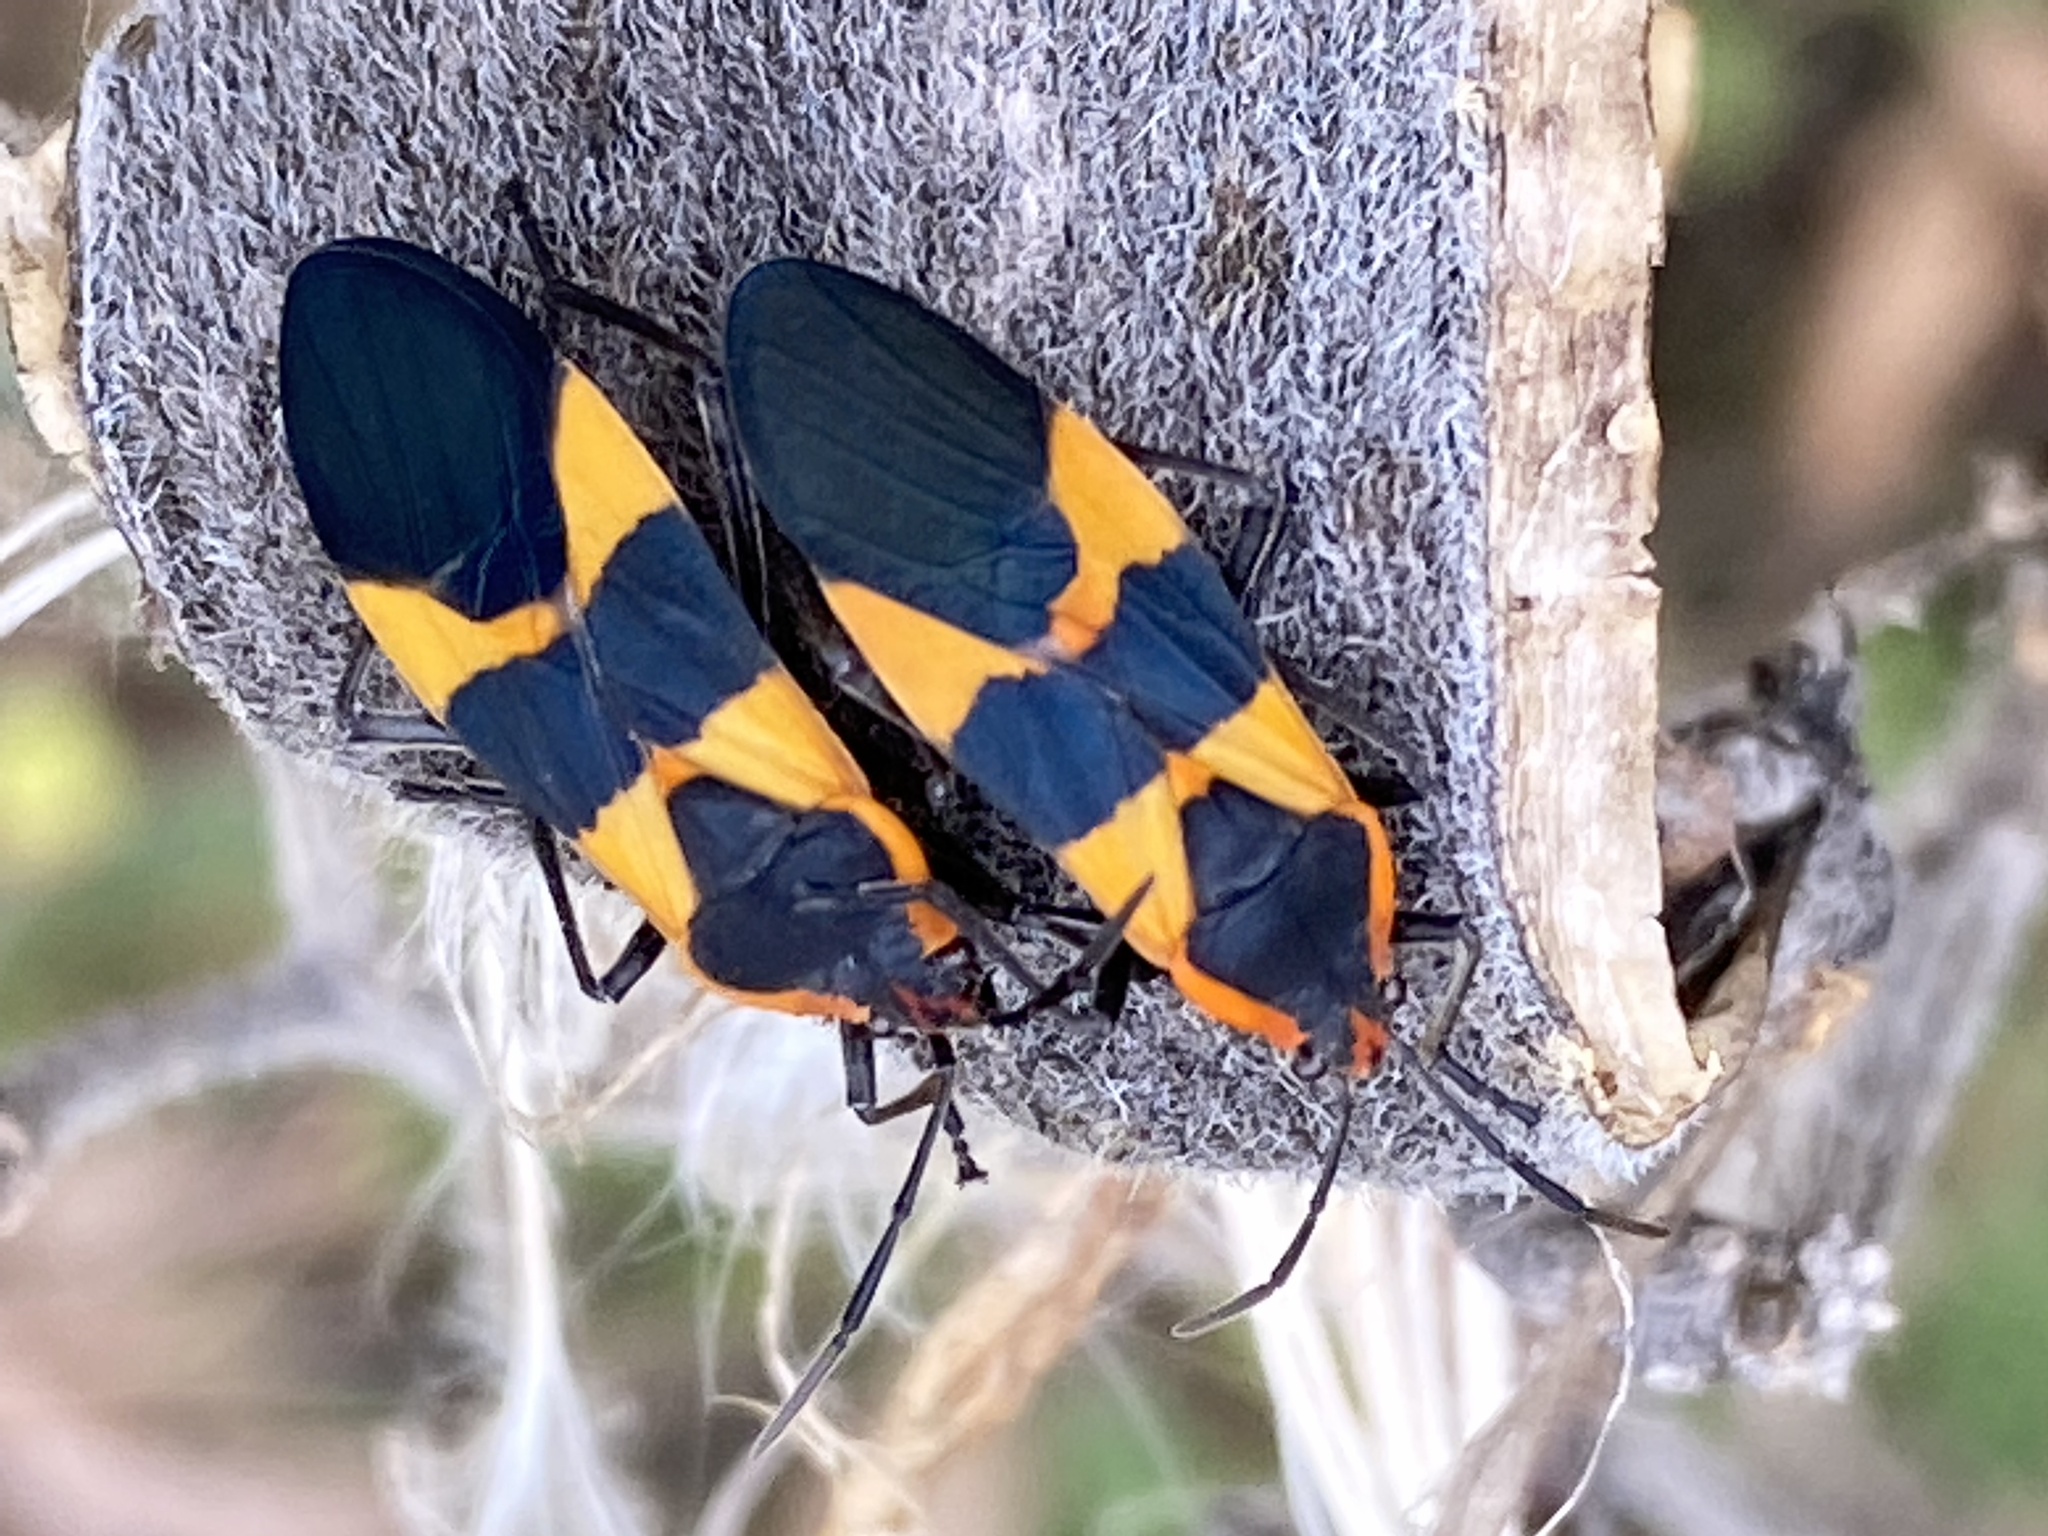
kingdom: Animalia
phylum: Arthropoda
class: Insecta
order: Hemiptera
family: Lygaeidae
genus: Oncopeltus
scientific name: Oncopeltus fasciatus
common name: Large milkweed bug
